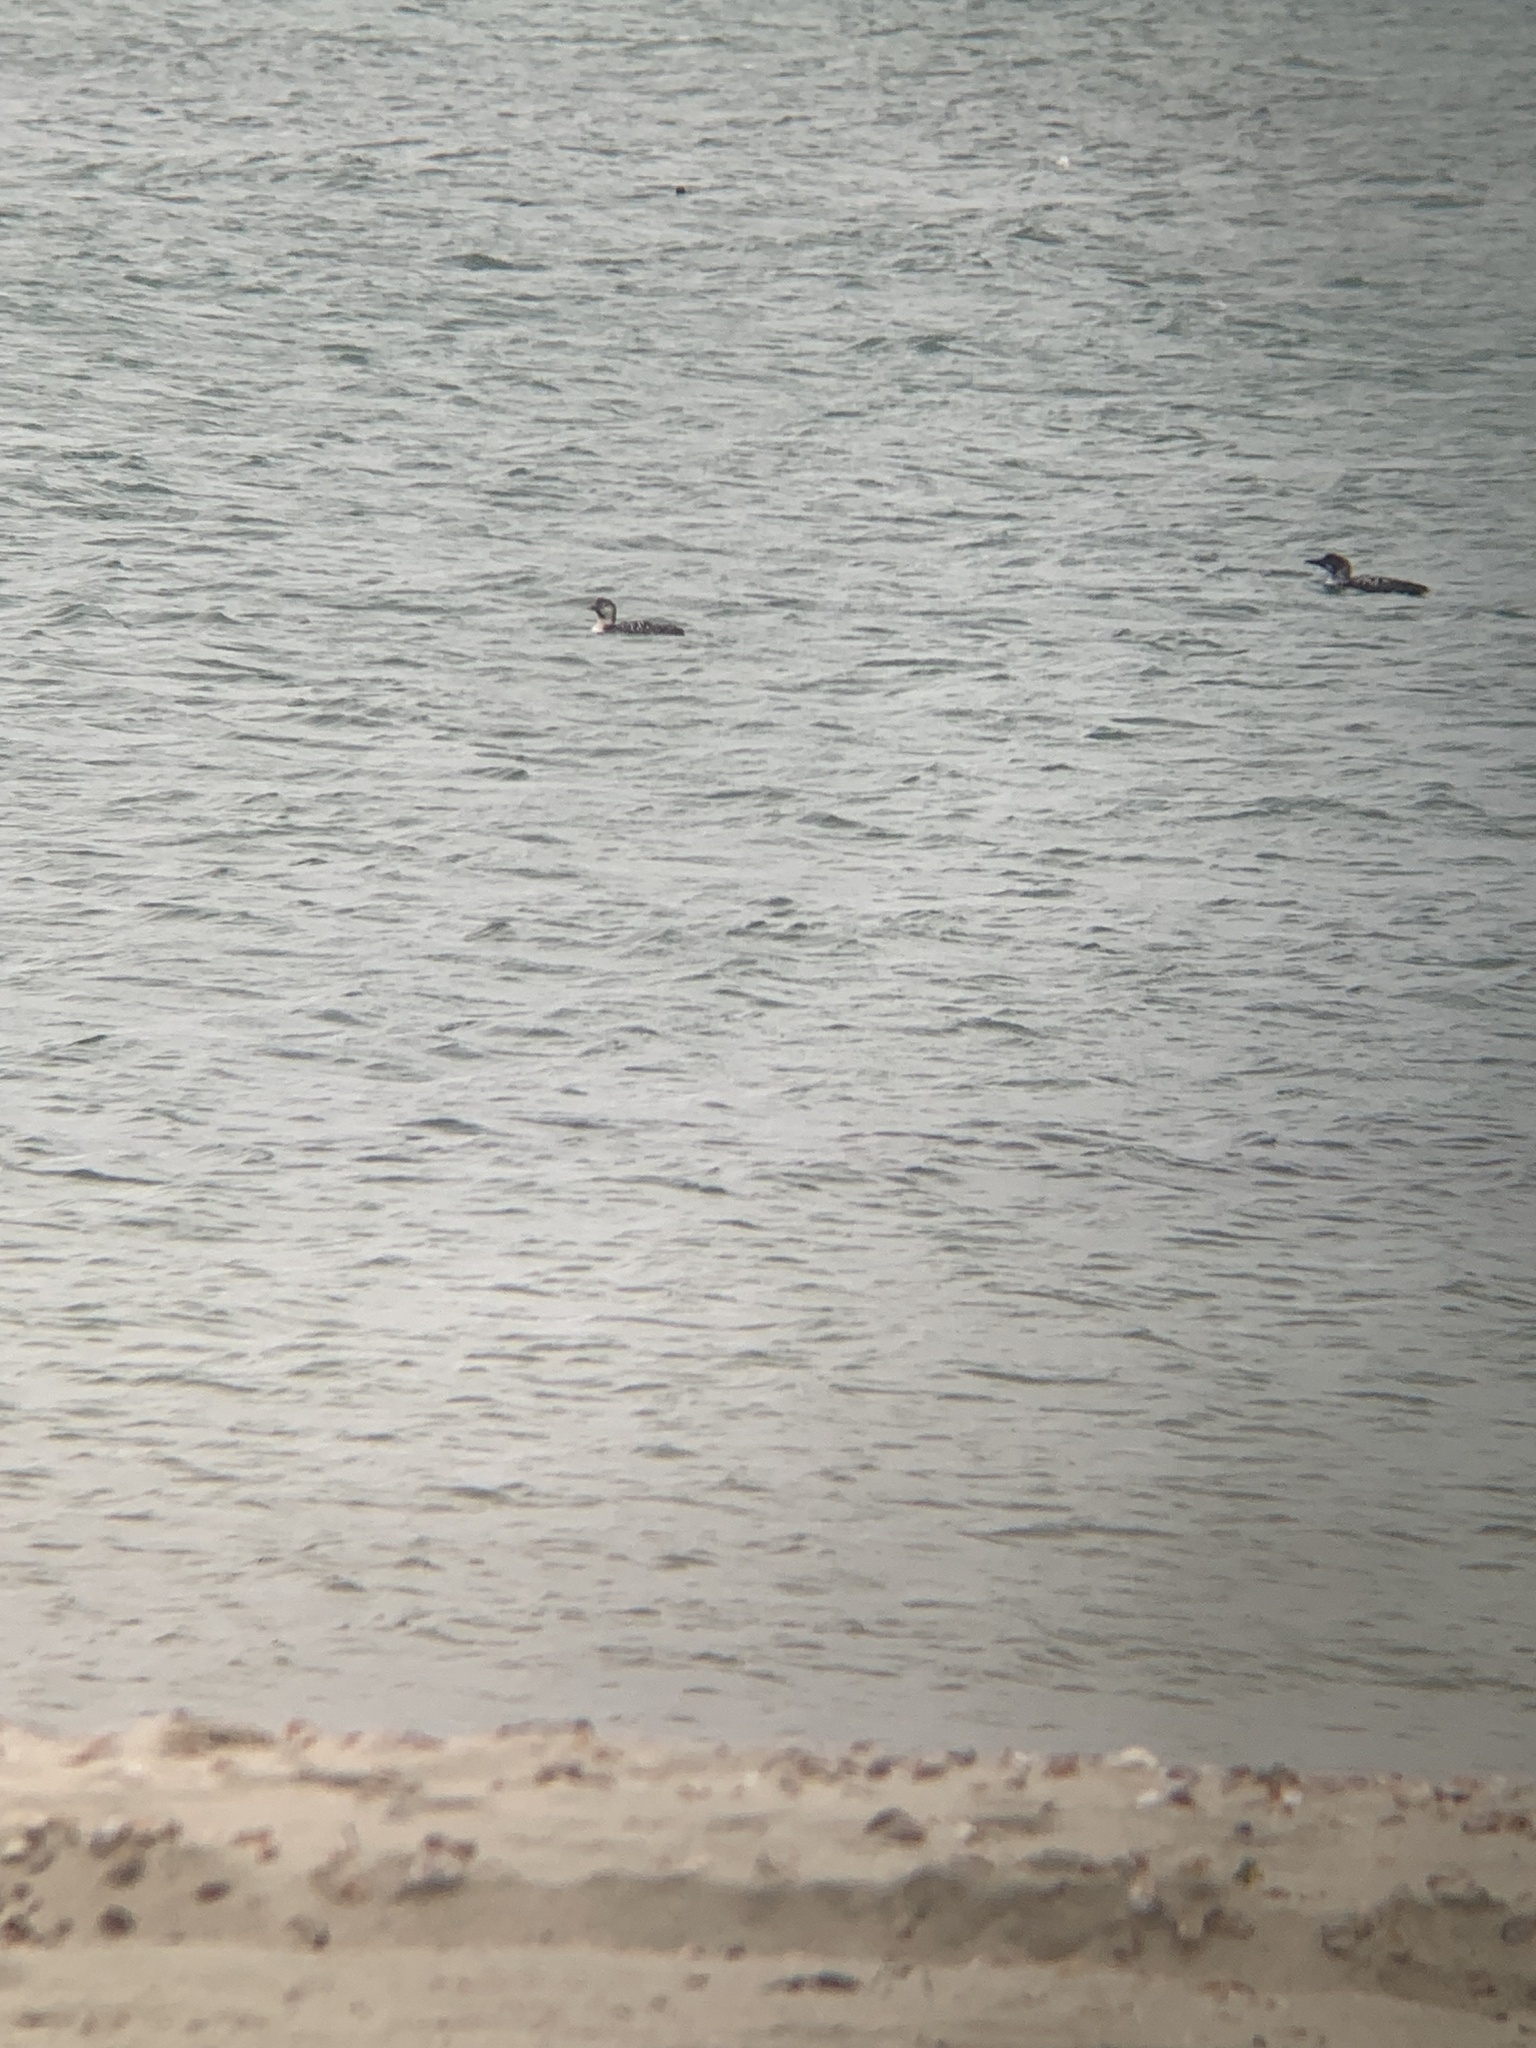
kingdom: Animalia
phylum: Chordata
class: Aves
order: Gaviiformes
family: Gaviidae
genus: Gavia
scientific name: Gavia immer
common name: Common loon
